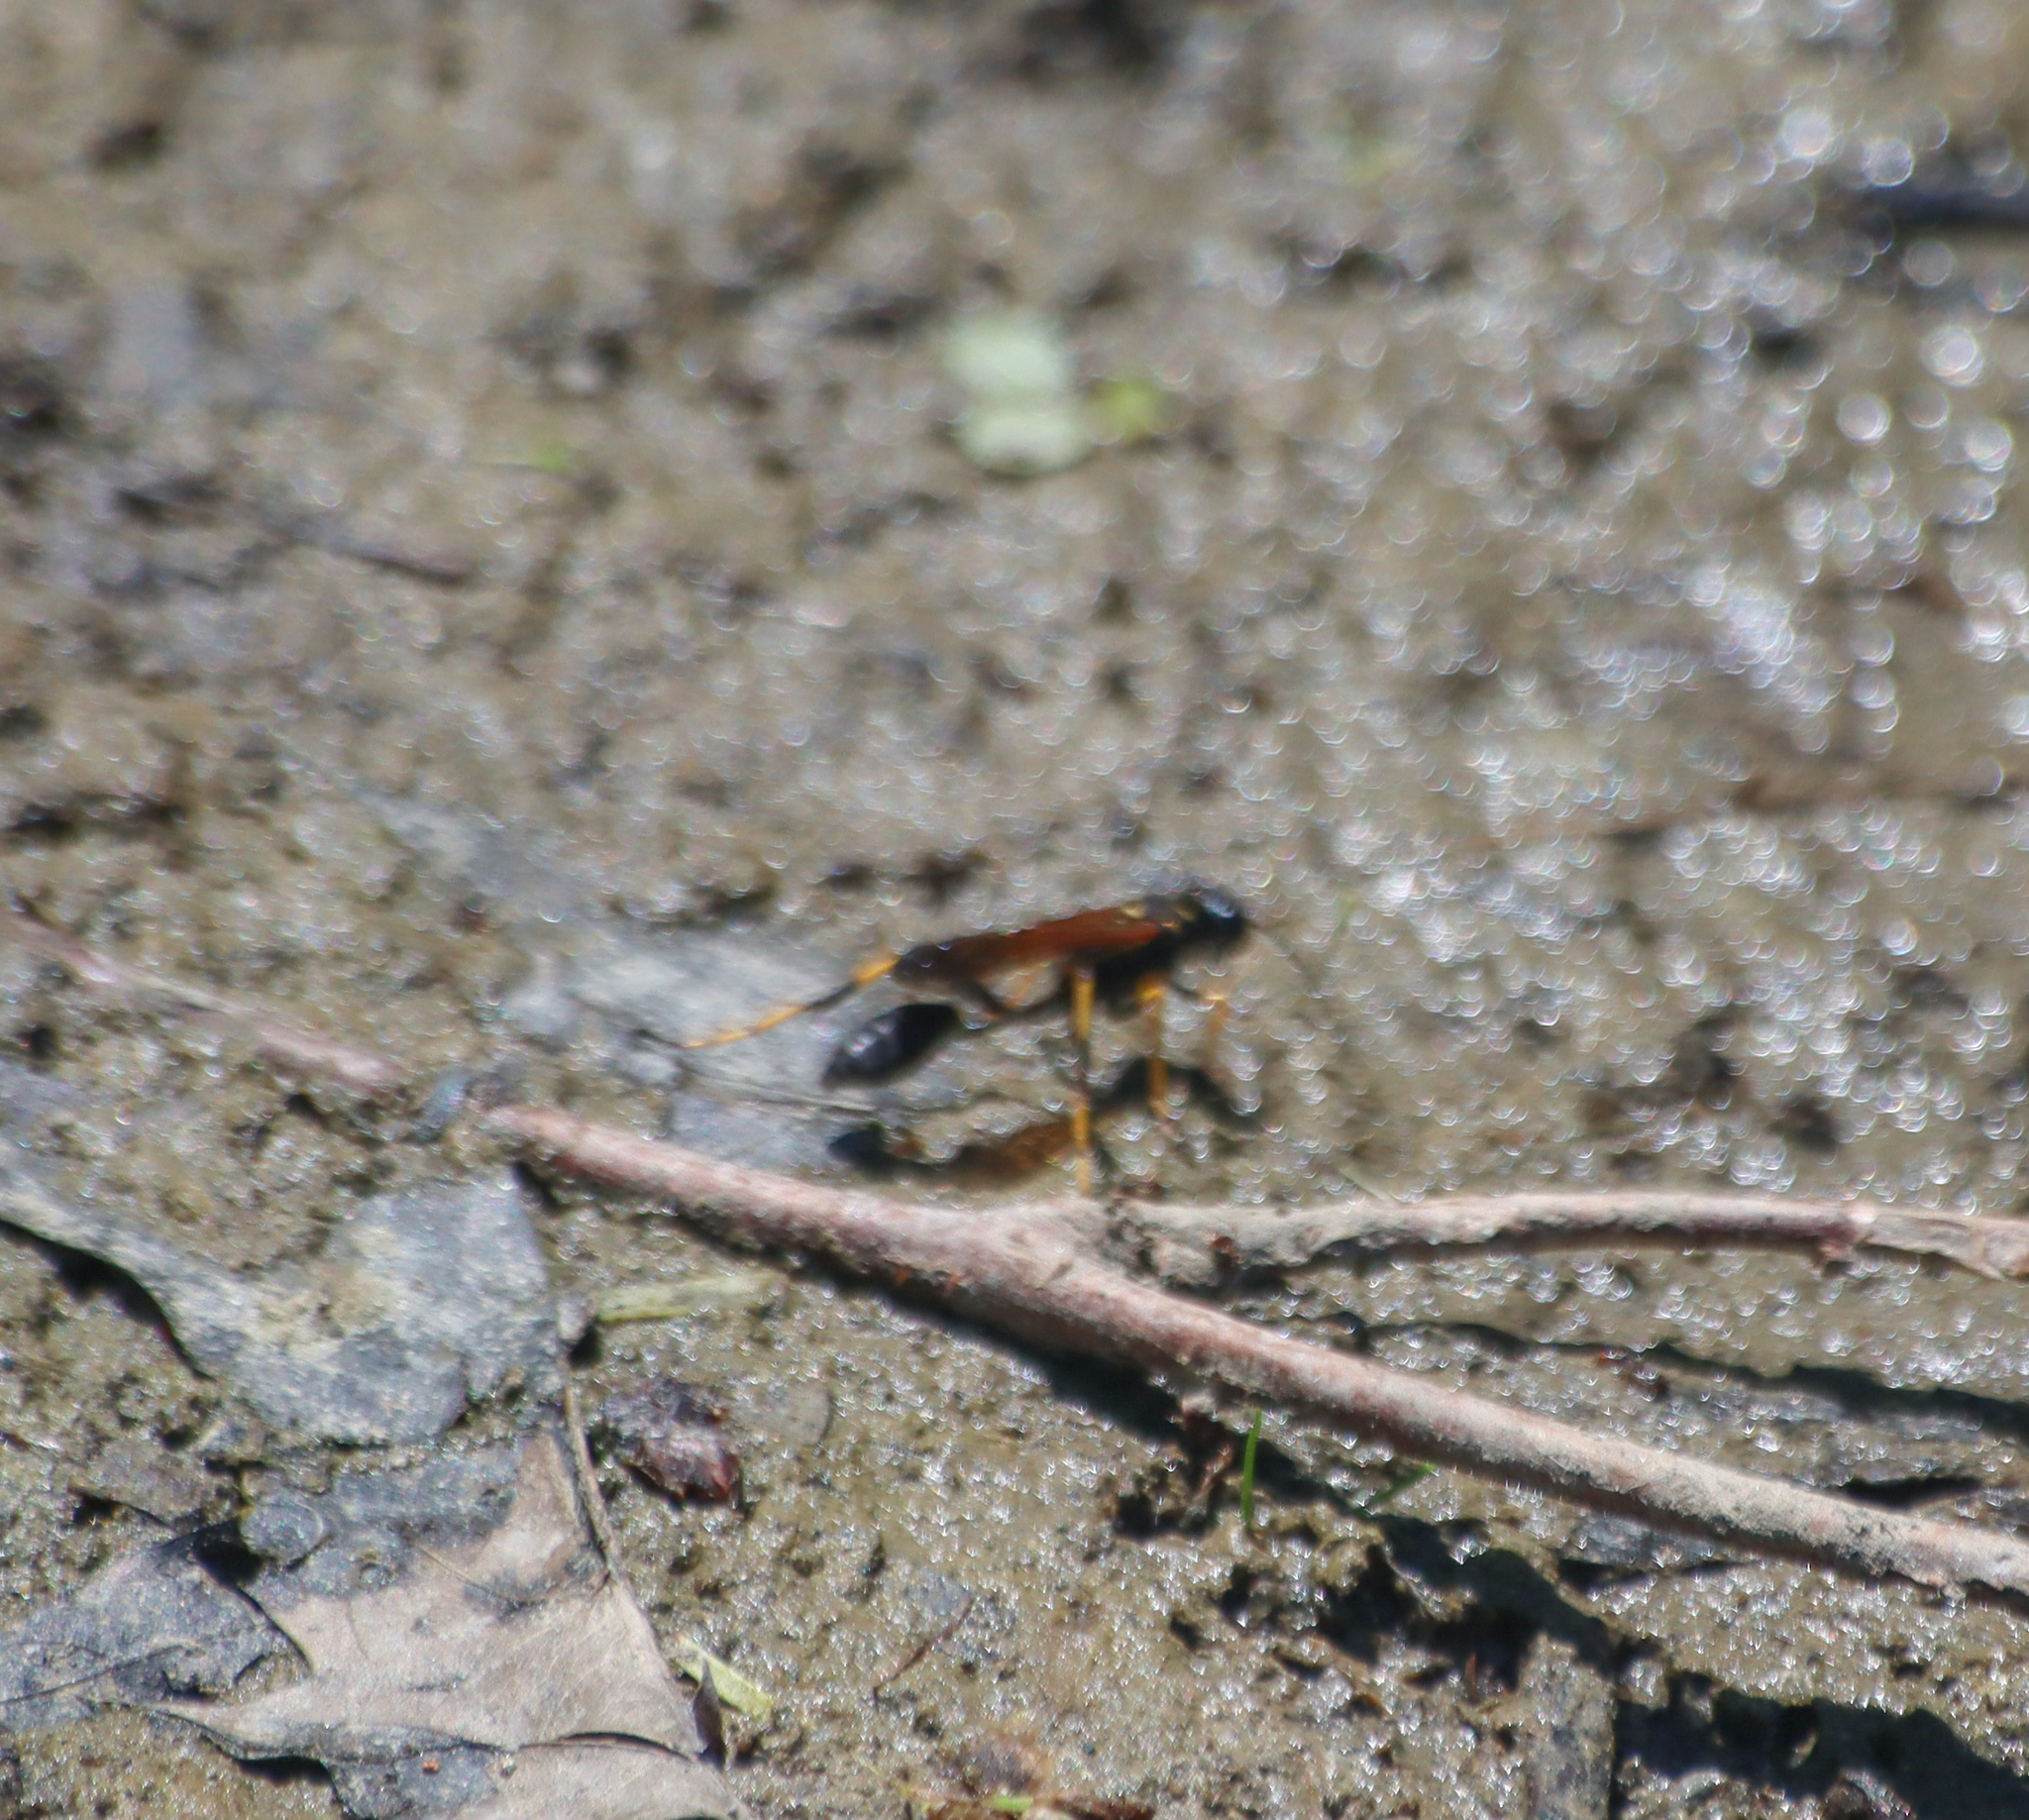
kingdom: Animalia
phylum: Arthropoda
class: Insecta
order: Hymenoptera
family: Sphecidae
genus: Sceliphron
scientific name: Sceliphron caementarium
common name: Mud dauber
